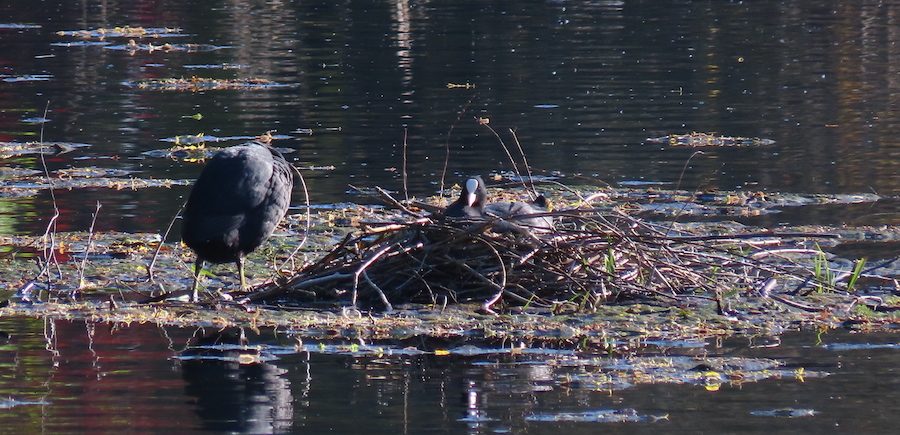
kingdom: Animalia
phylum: Chordata
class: Aves
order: Gruiformes
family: Rallidae
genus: Fulica
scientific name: Fulica atra
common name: Eurasian coot
